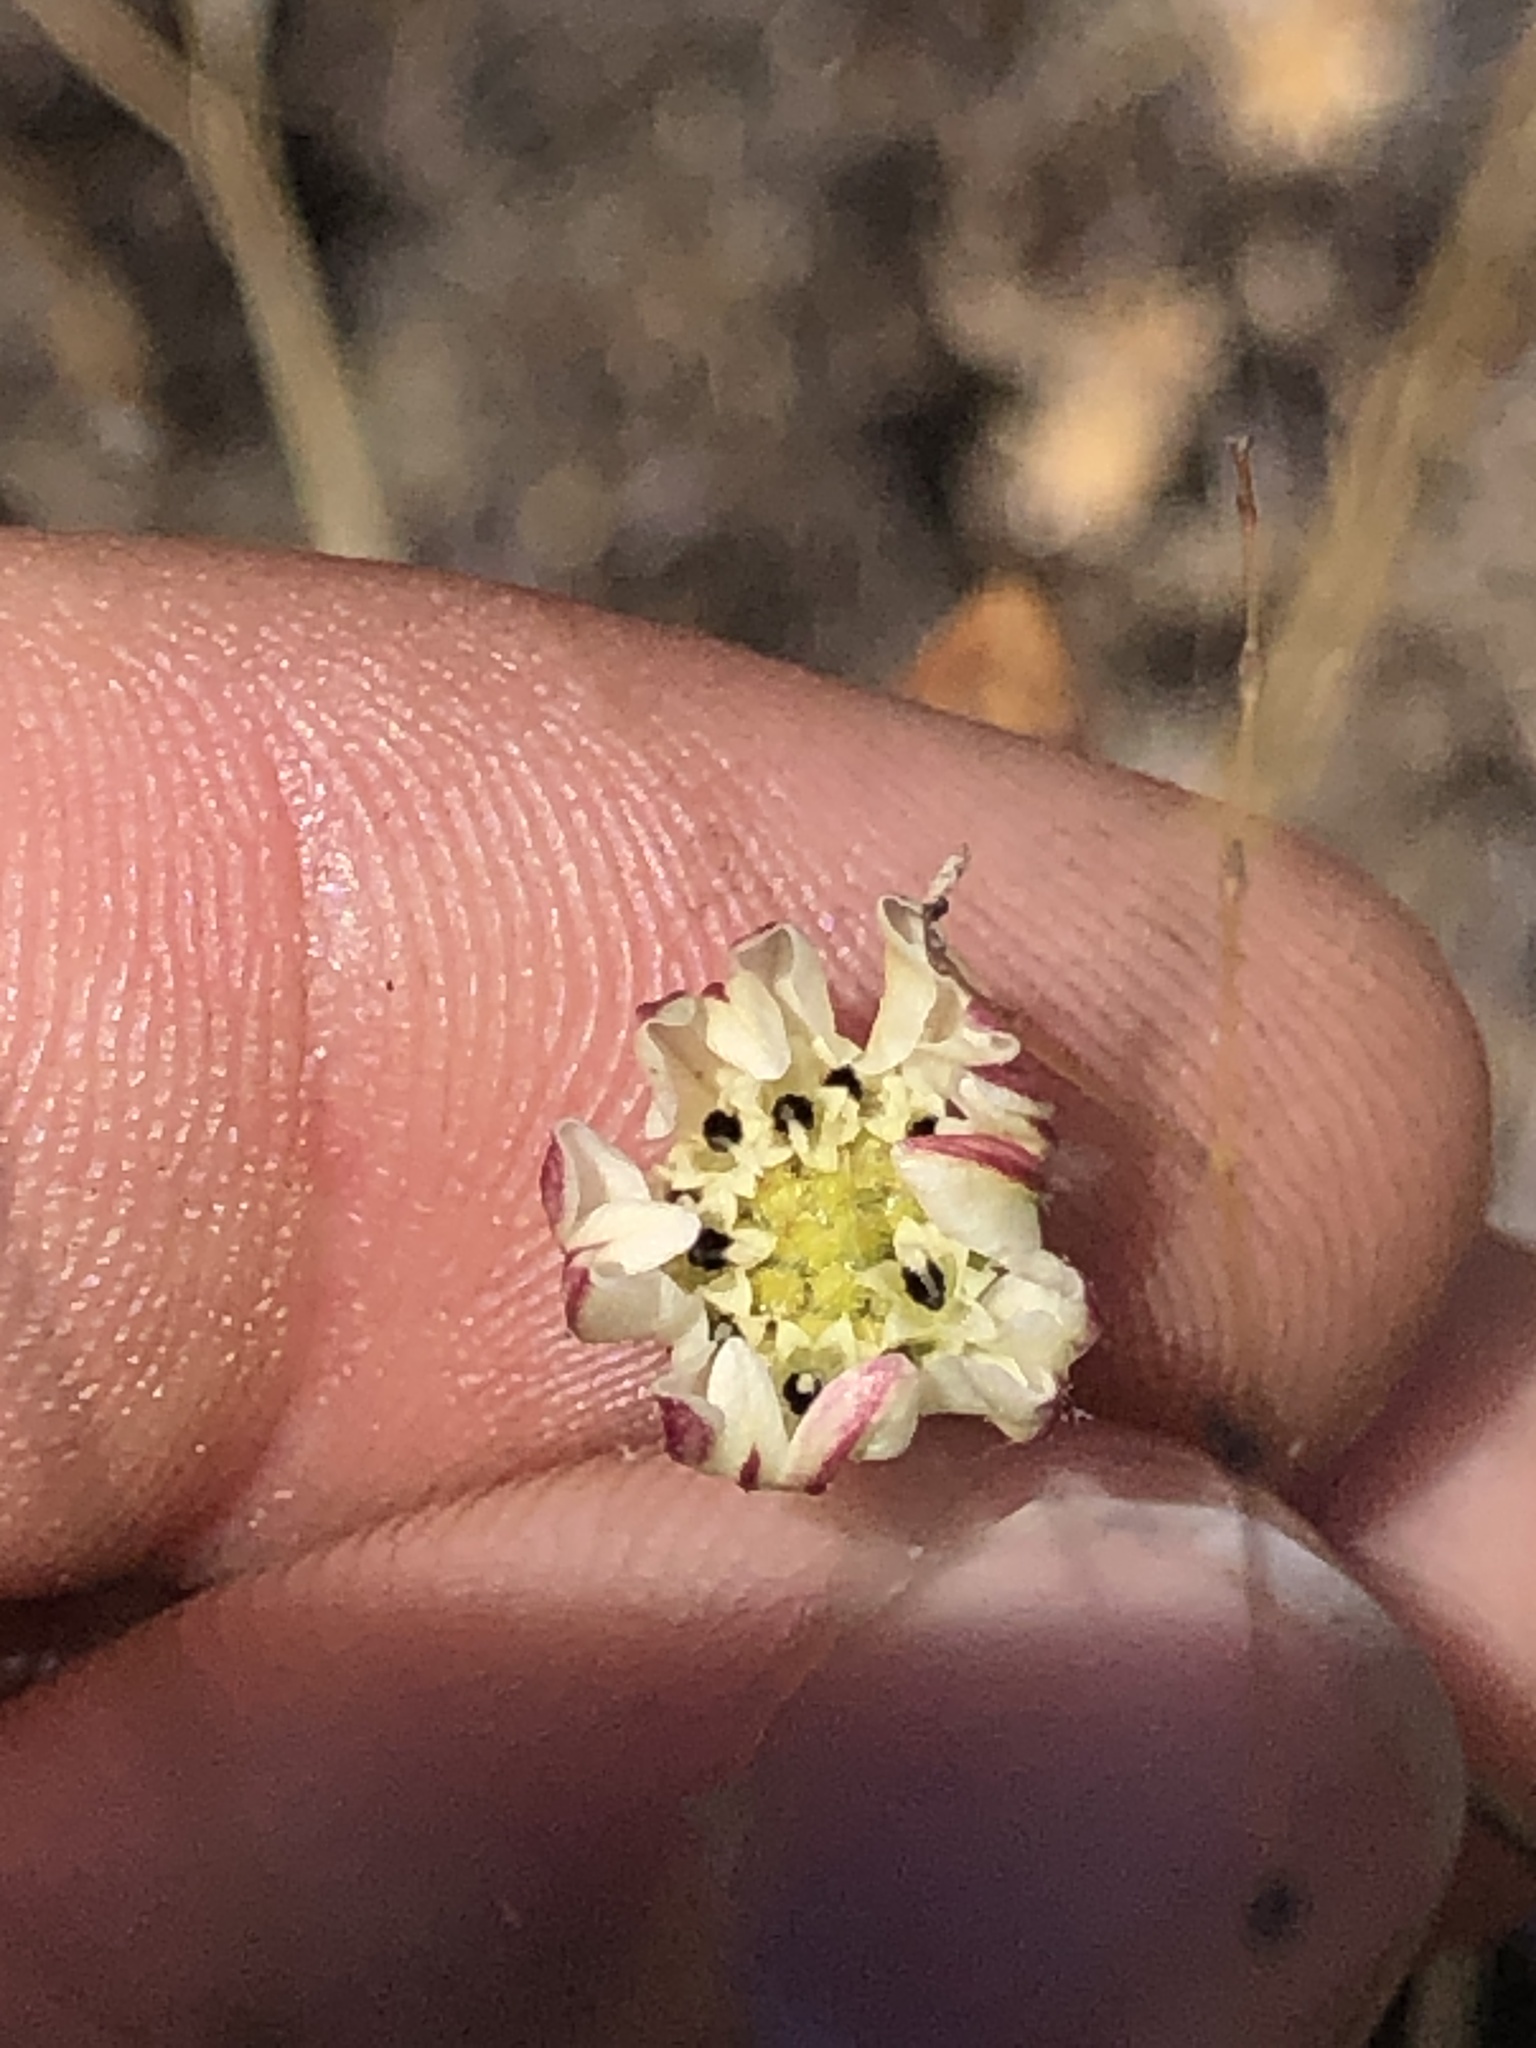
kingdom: Plantae
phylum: Tracheophyta
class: Magnoliopsida
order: Asterales
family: Asteraceae
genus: Hemizonia
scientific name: Hemizonia congesta
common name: Hayfield tarweed
